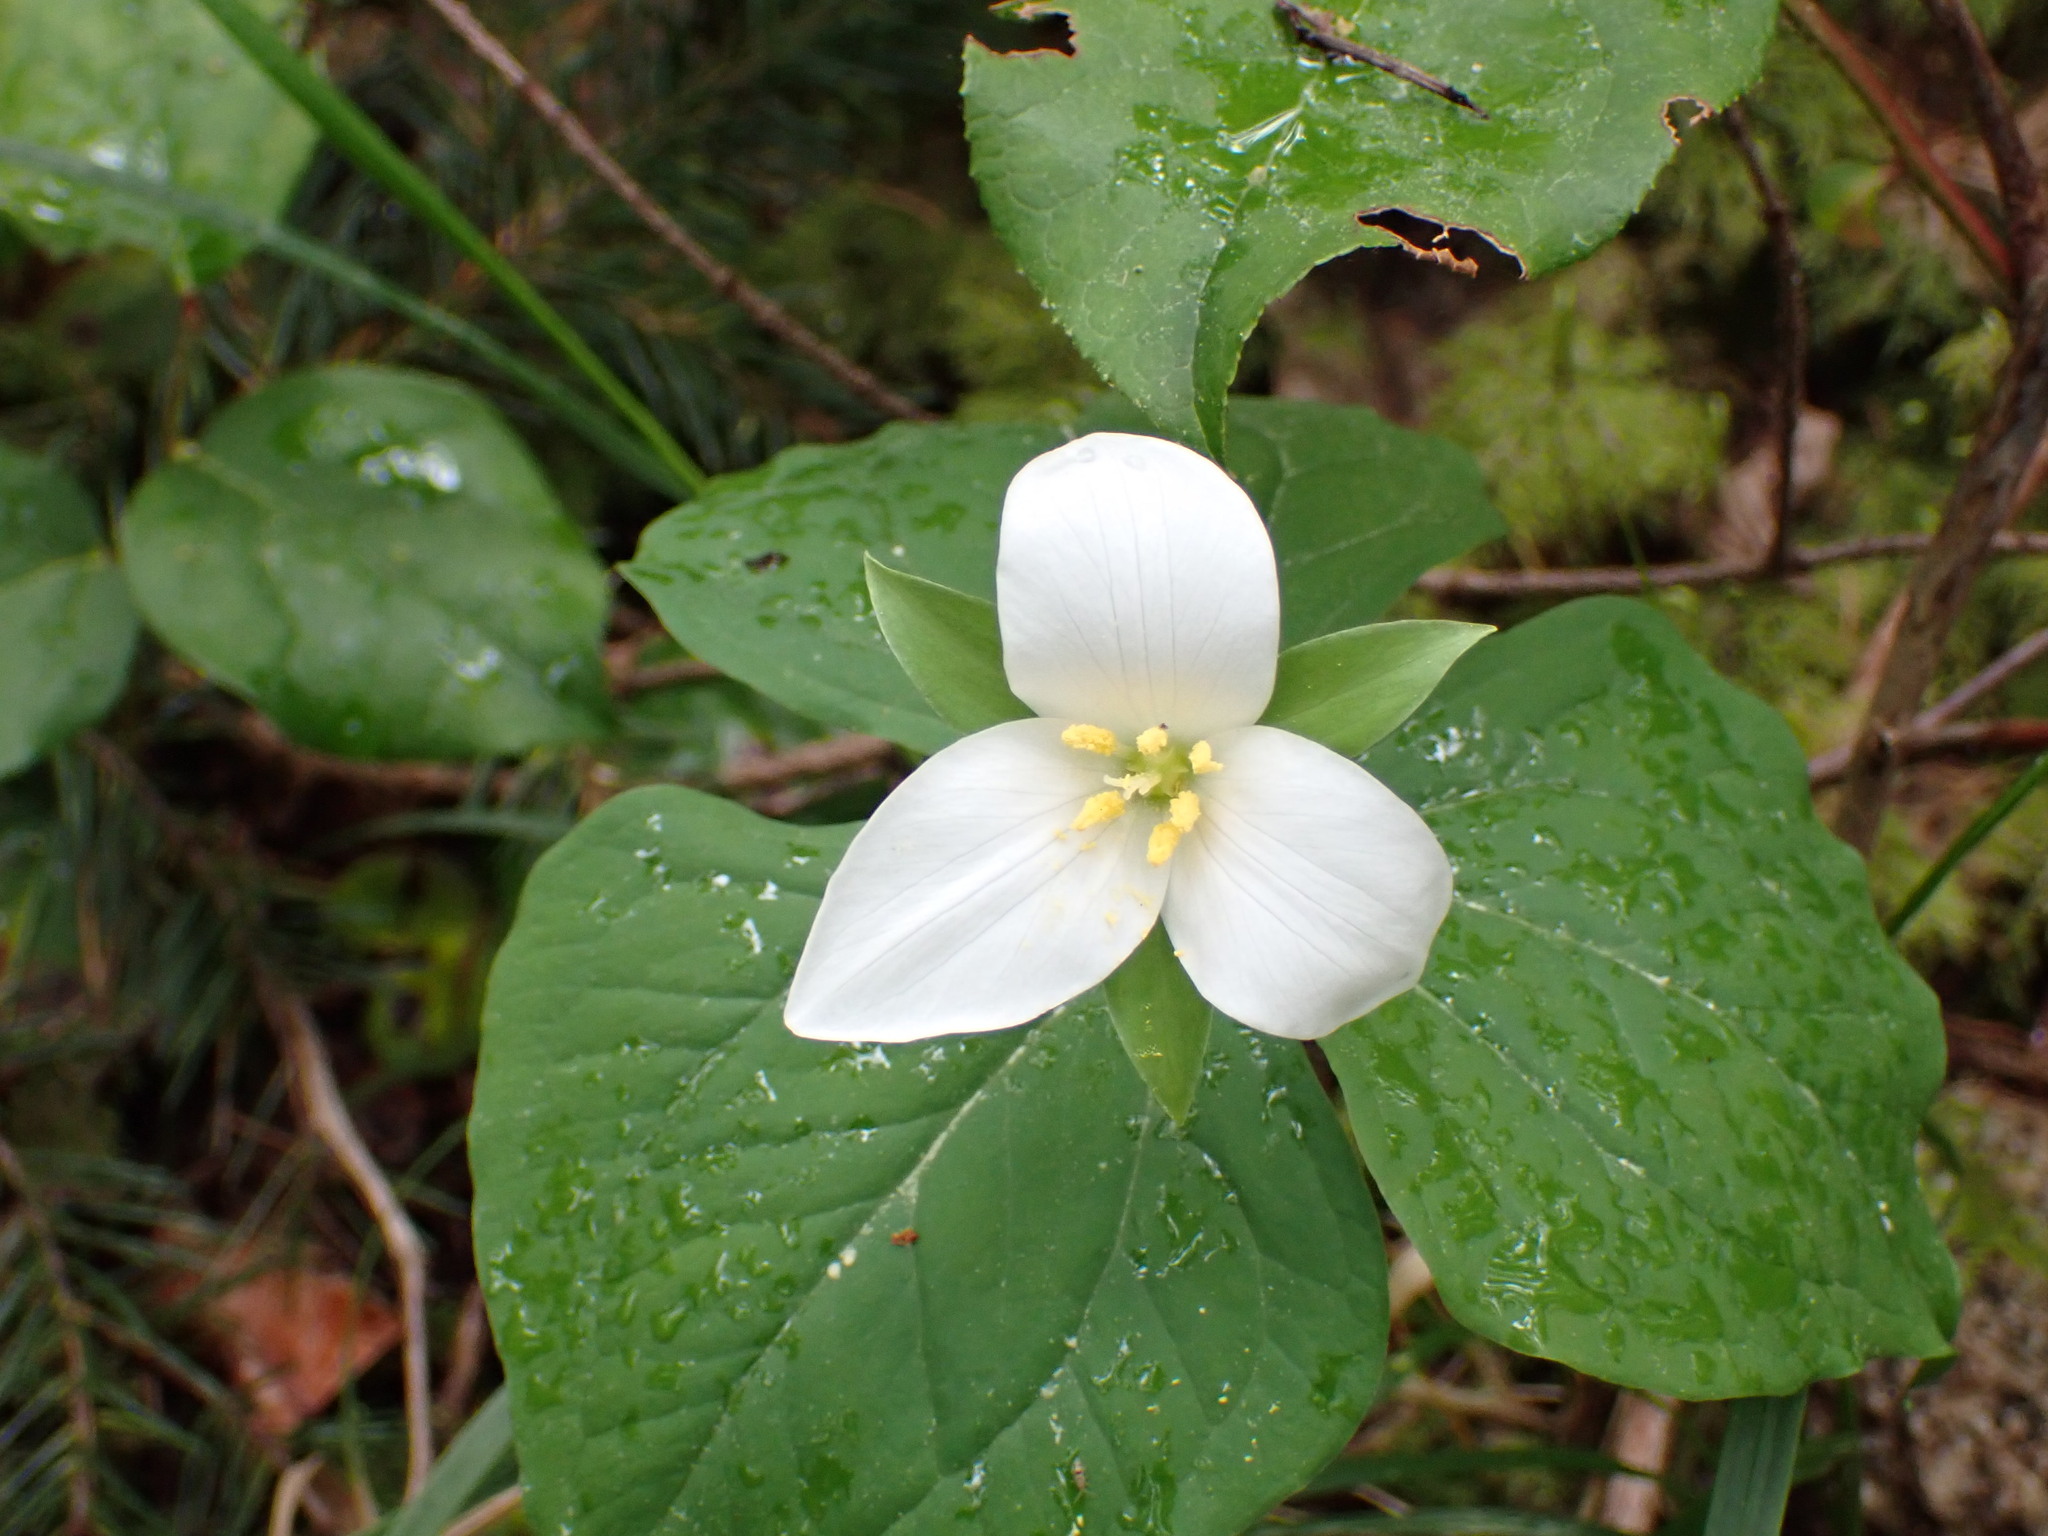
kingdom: Plantae
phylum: Tracheophyta
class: Liliopsida
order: Liliales
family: Melanthiaceae
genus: Trillium
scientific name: Trillium ovatum
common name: Pacific trillium
